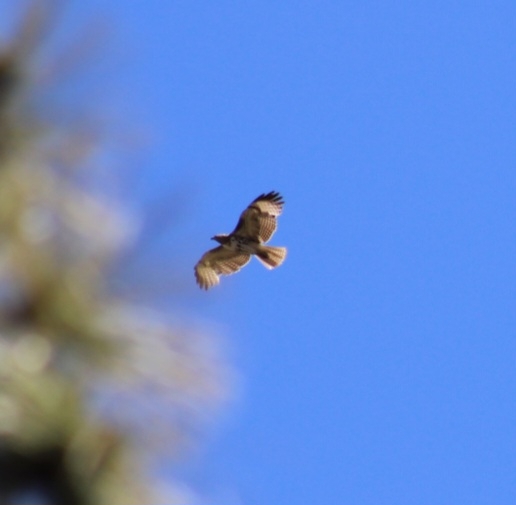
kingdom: Animalia
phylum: Chordata
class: Aves
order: Accipitriformes
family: Accipitridae
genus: Buteo
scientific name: Buteo jamaicensis
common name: Red-tailed hawk
